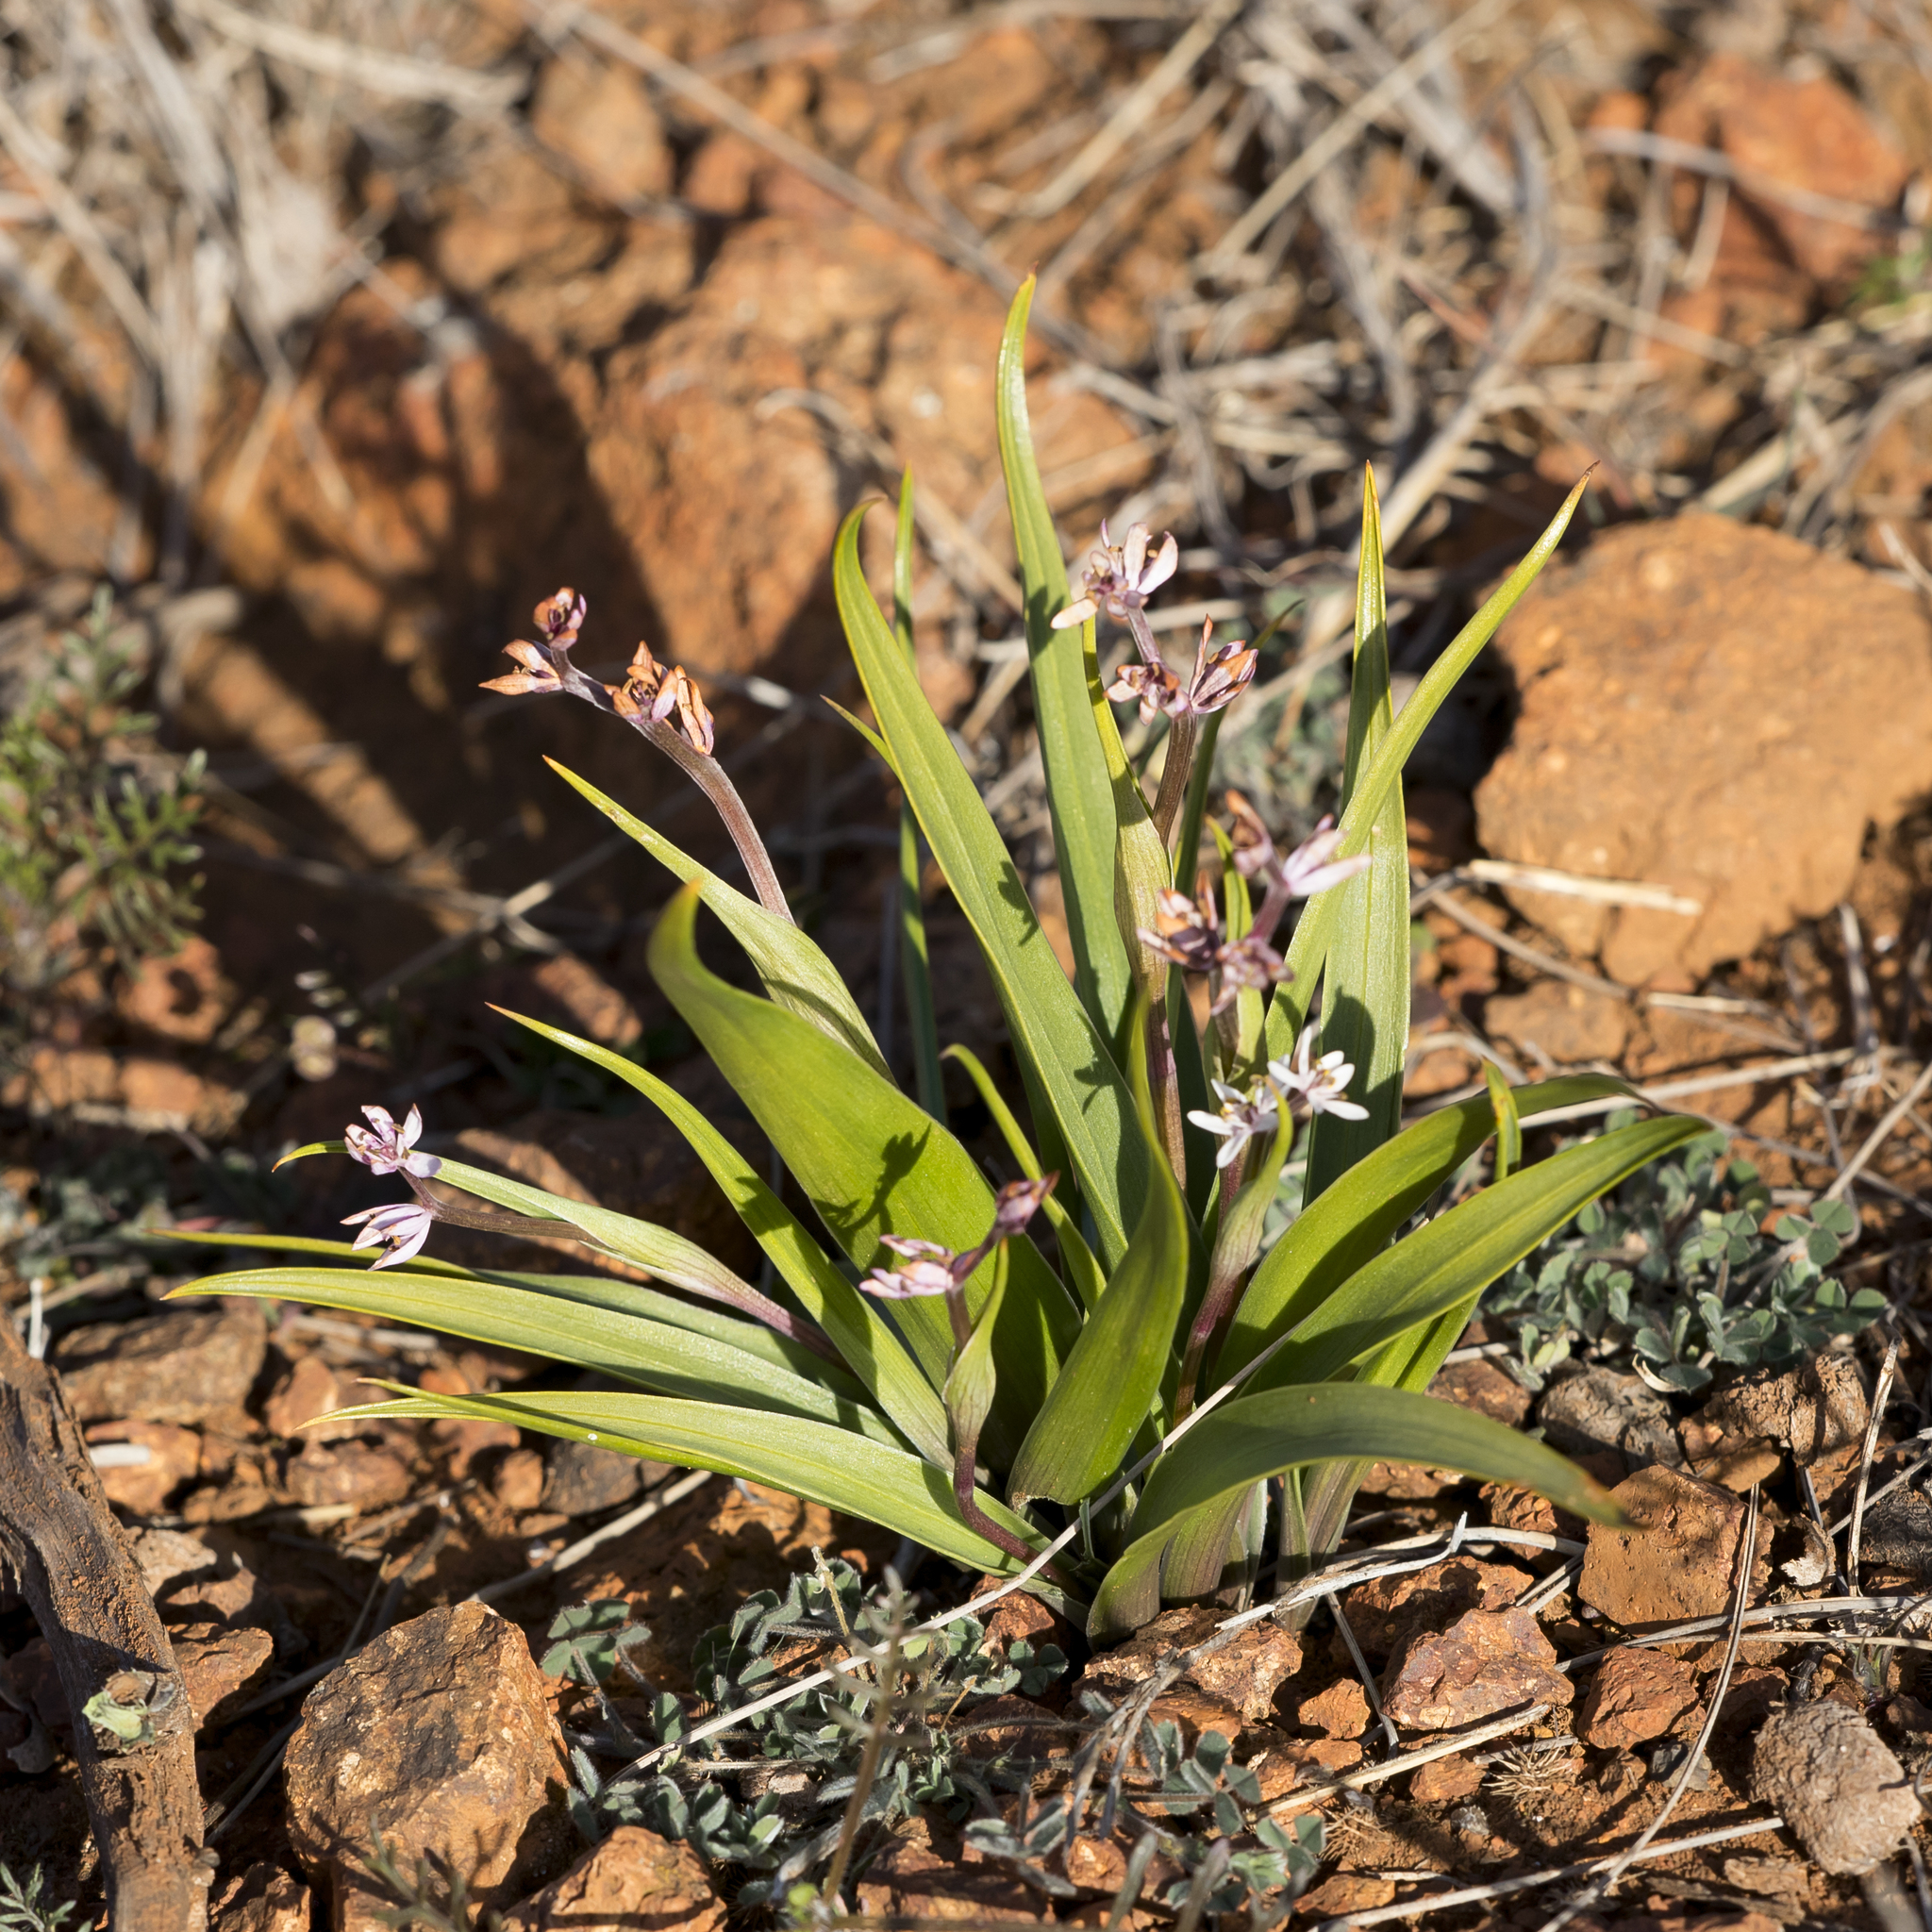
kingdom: Plantae
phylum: Tracheophyta
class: Liliopsida
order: Liliales
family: Colchicaceae
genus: Wurmbea
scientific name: Wurmbea australis
